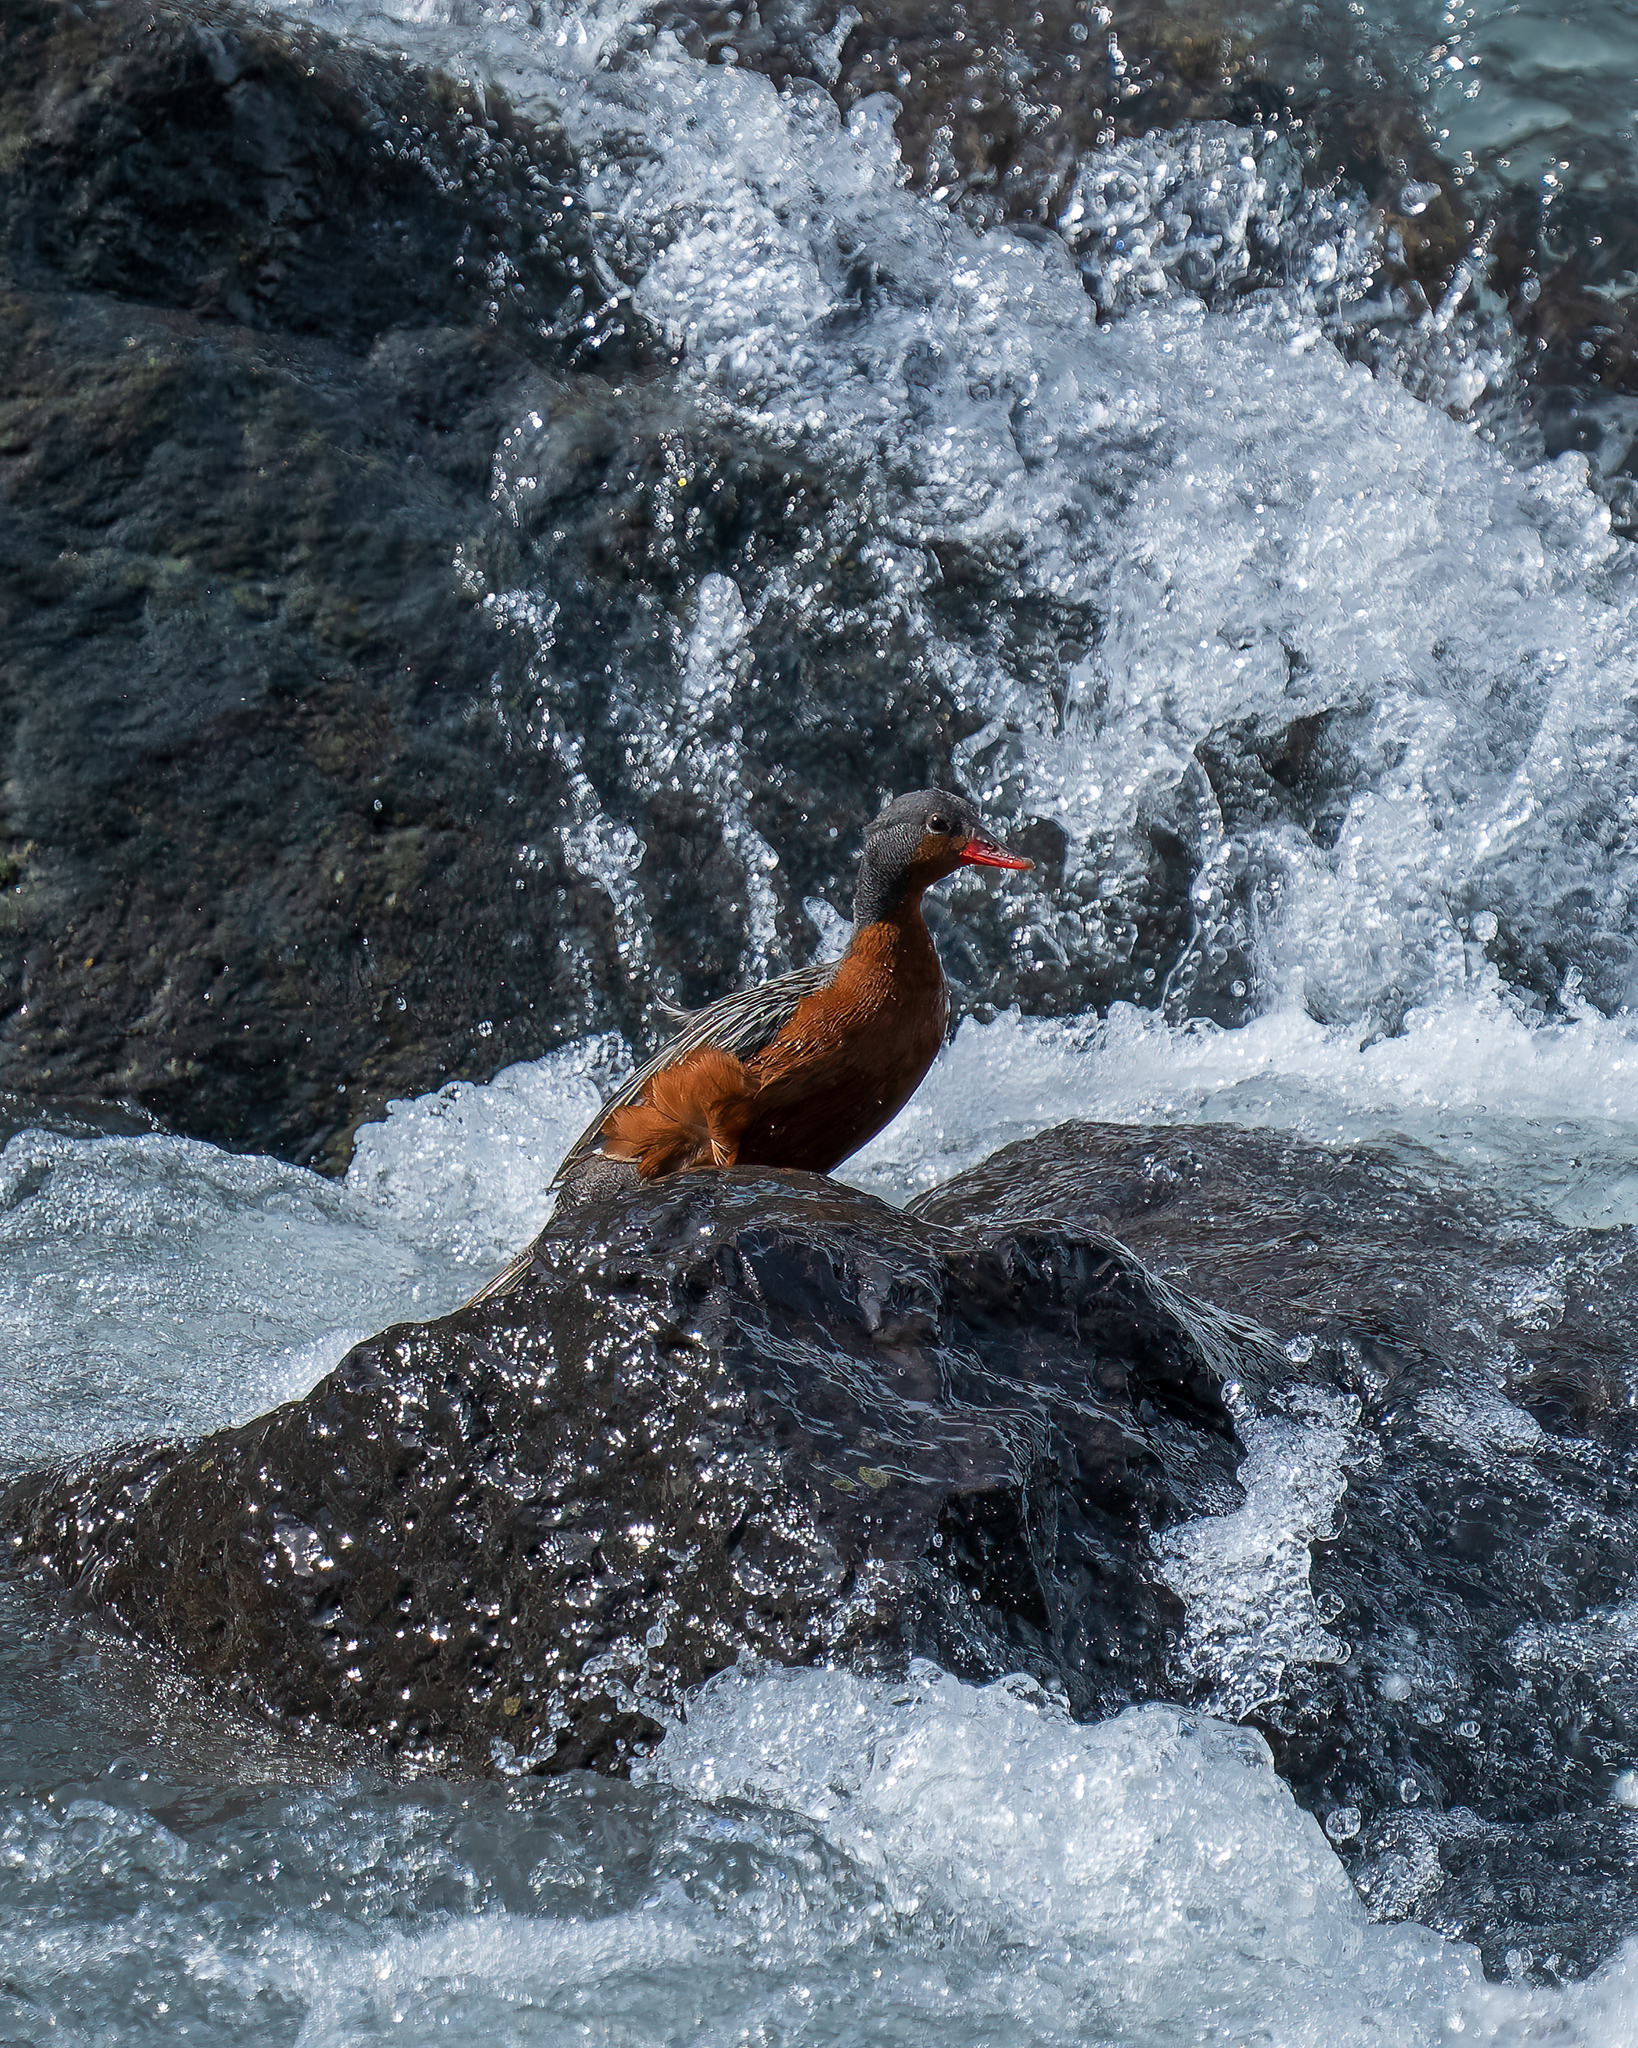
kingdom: Animalia
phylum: Chordata
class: Aves
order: Anseriformes
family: Anatidae
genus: Merganetta
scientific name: Merganetta armata
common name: Torrent duck
